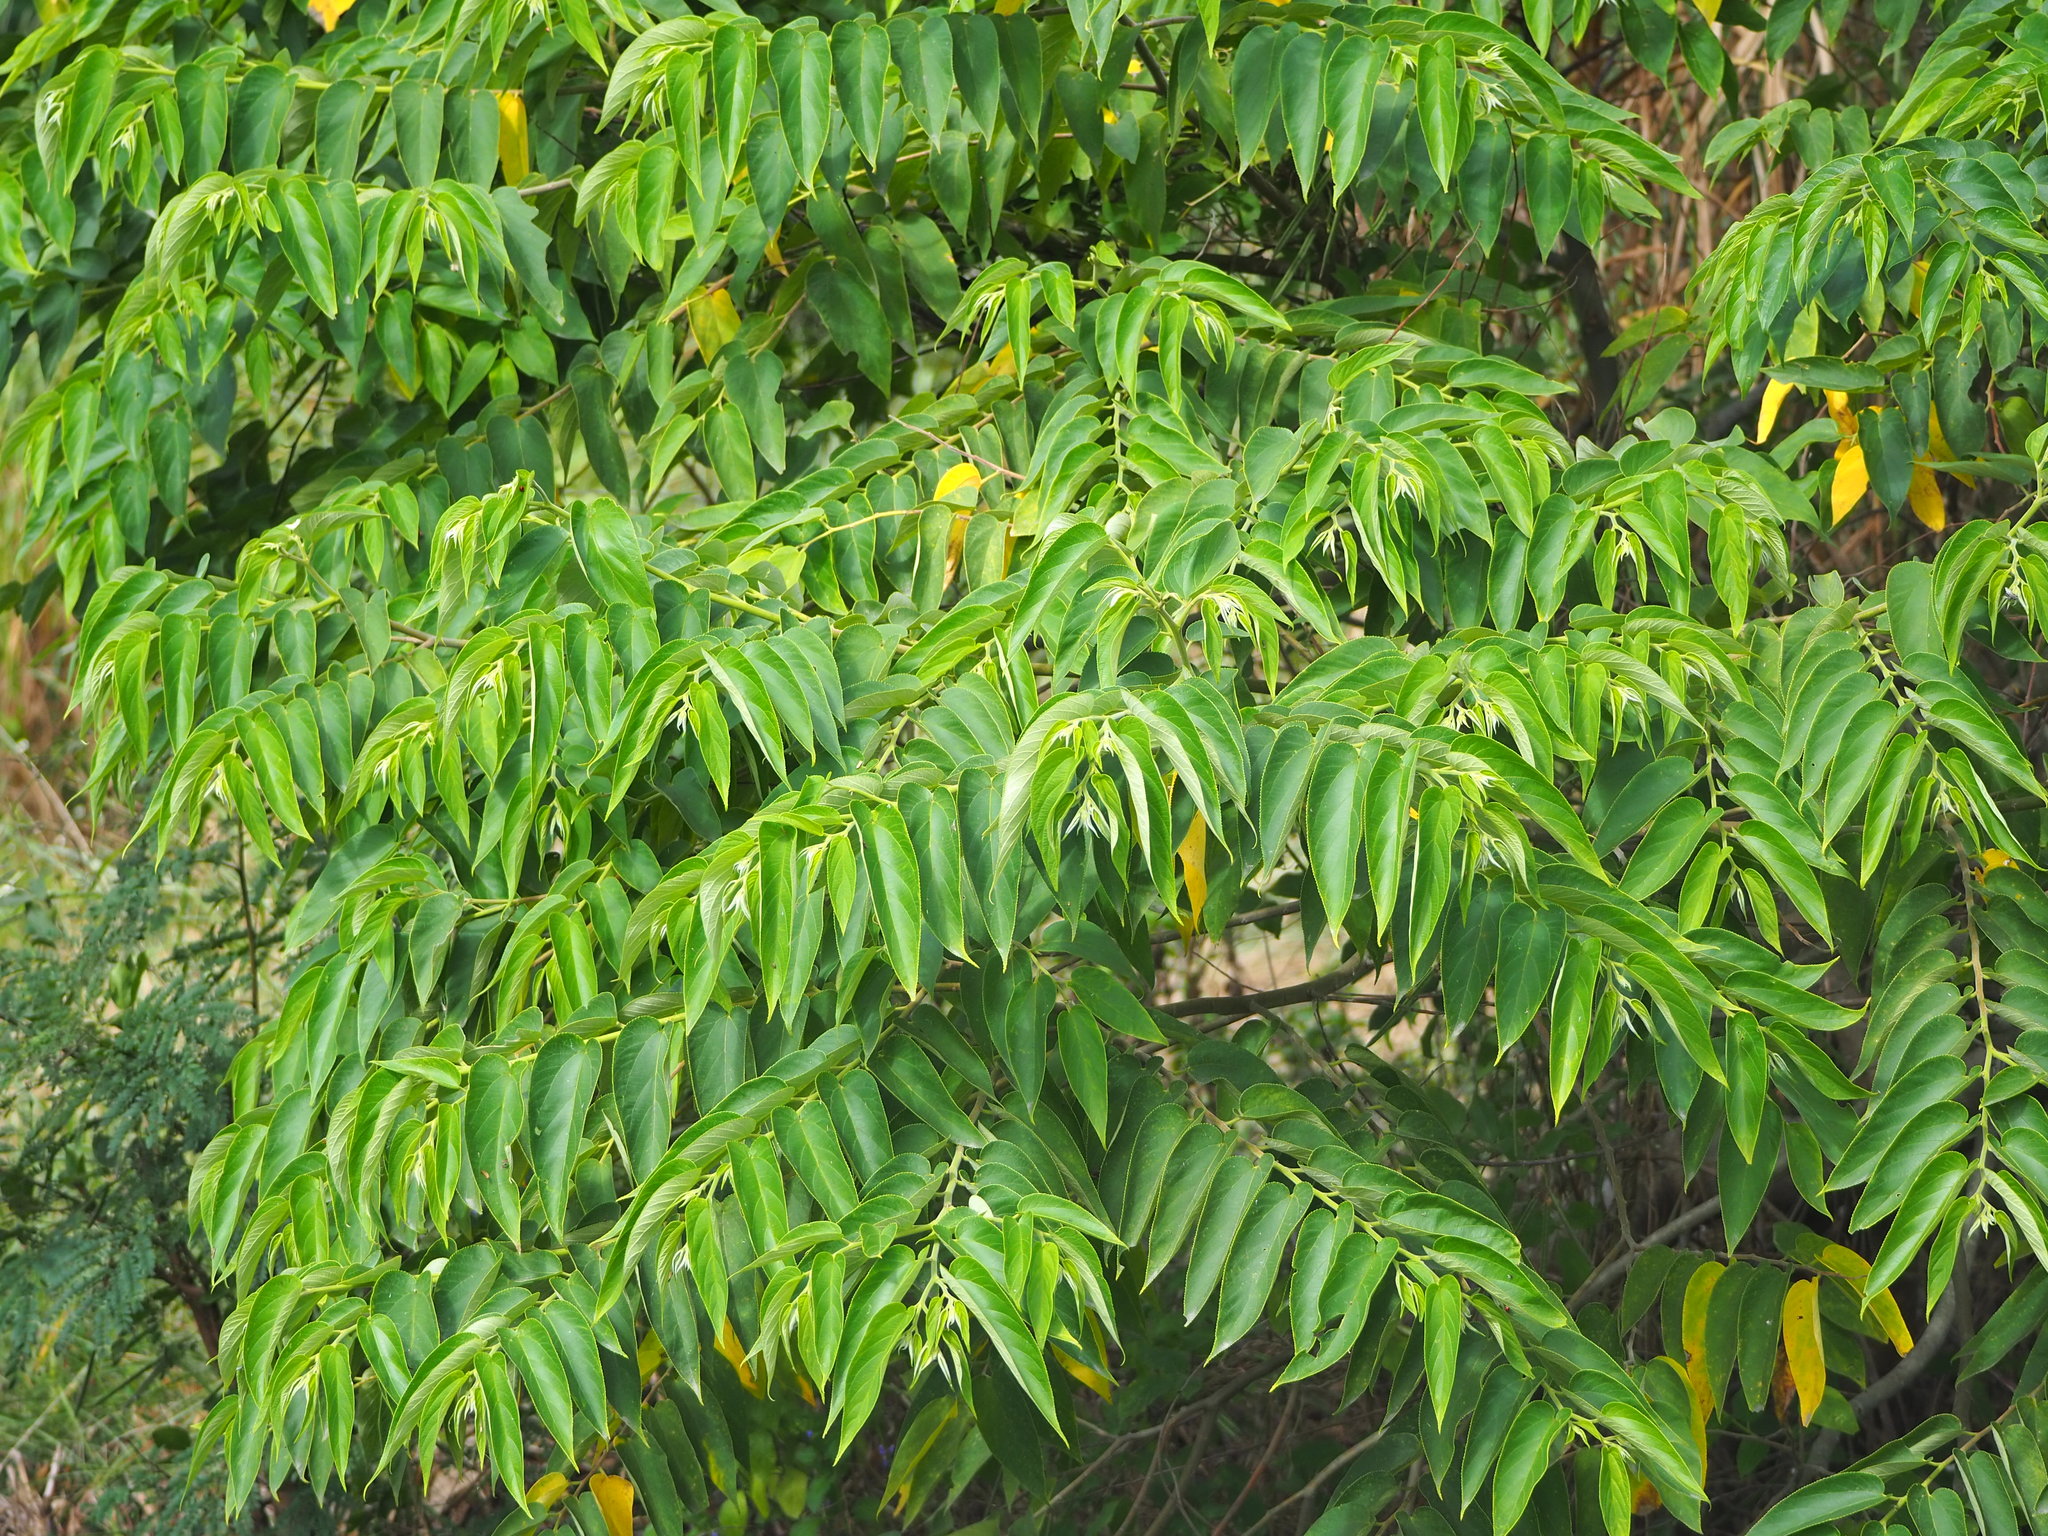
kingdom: Plantae
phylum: Tracheophyta
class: Magnoliopsida
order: Rosales
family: Cannabaceae
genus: Trema
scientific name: Trema orientale
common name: Indian charcoal tree
